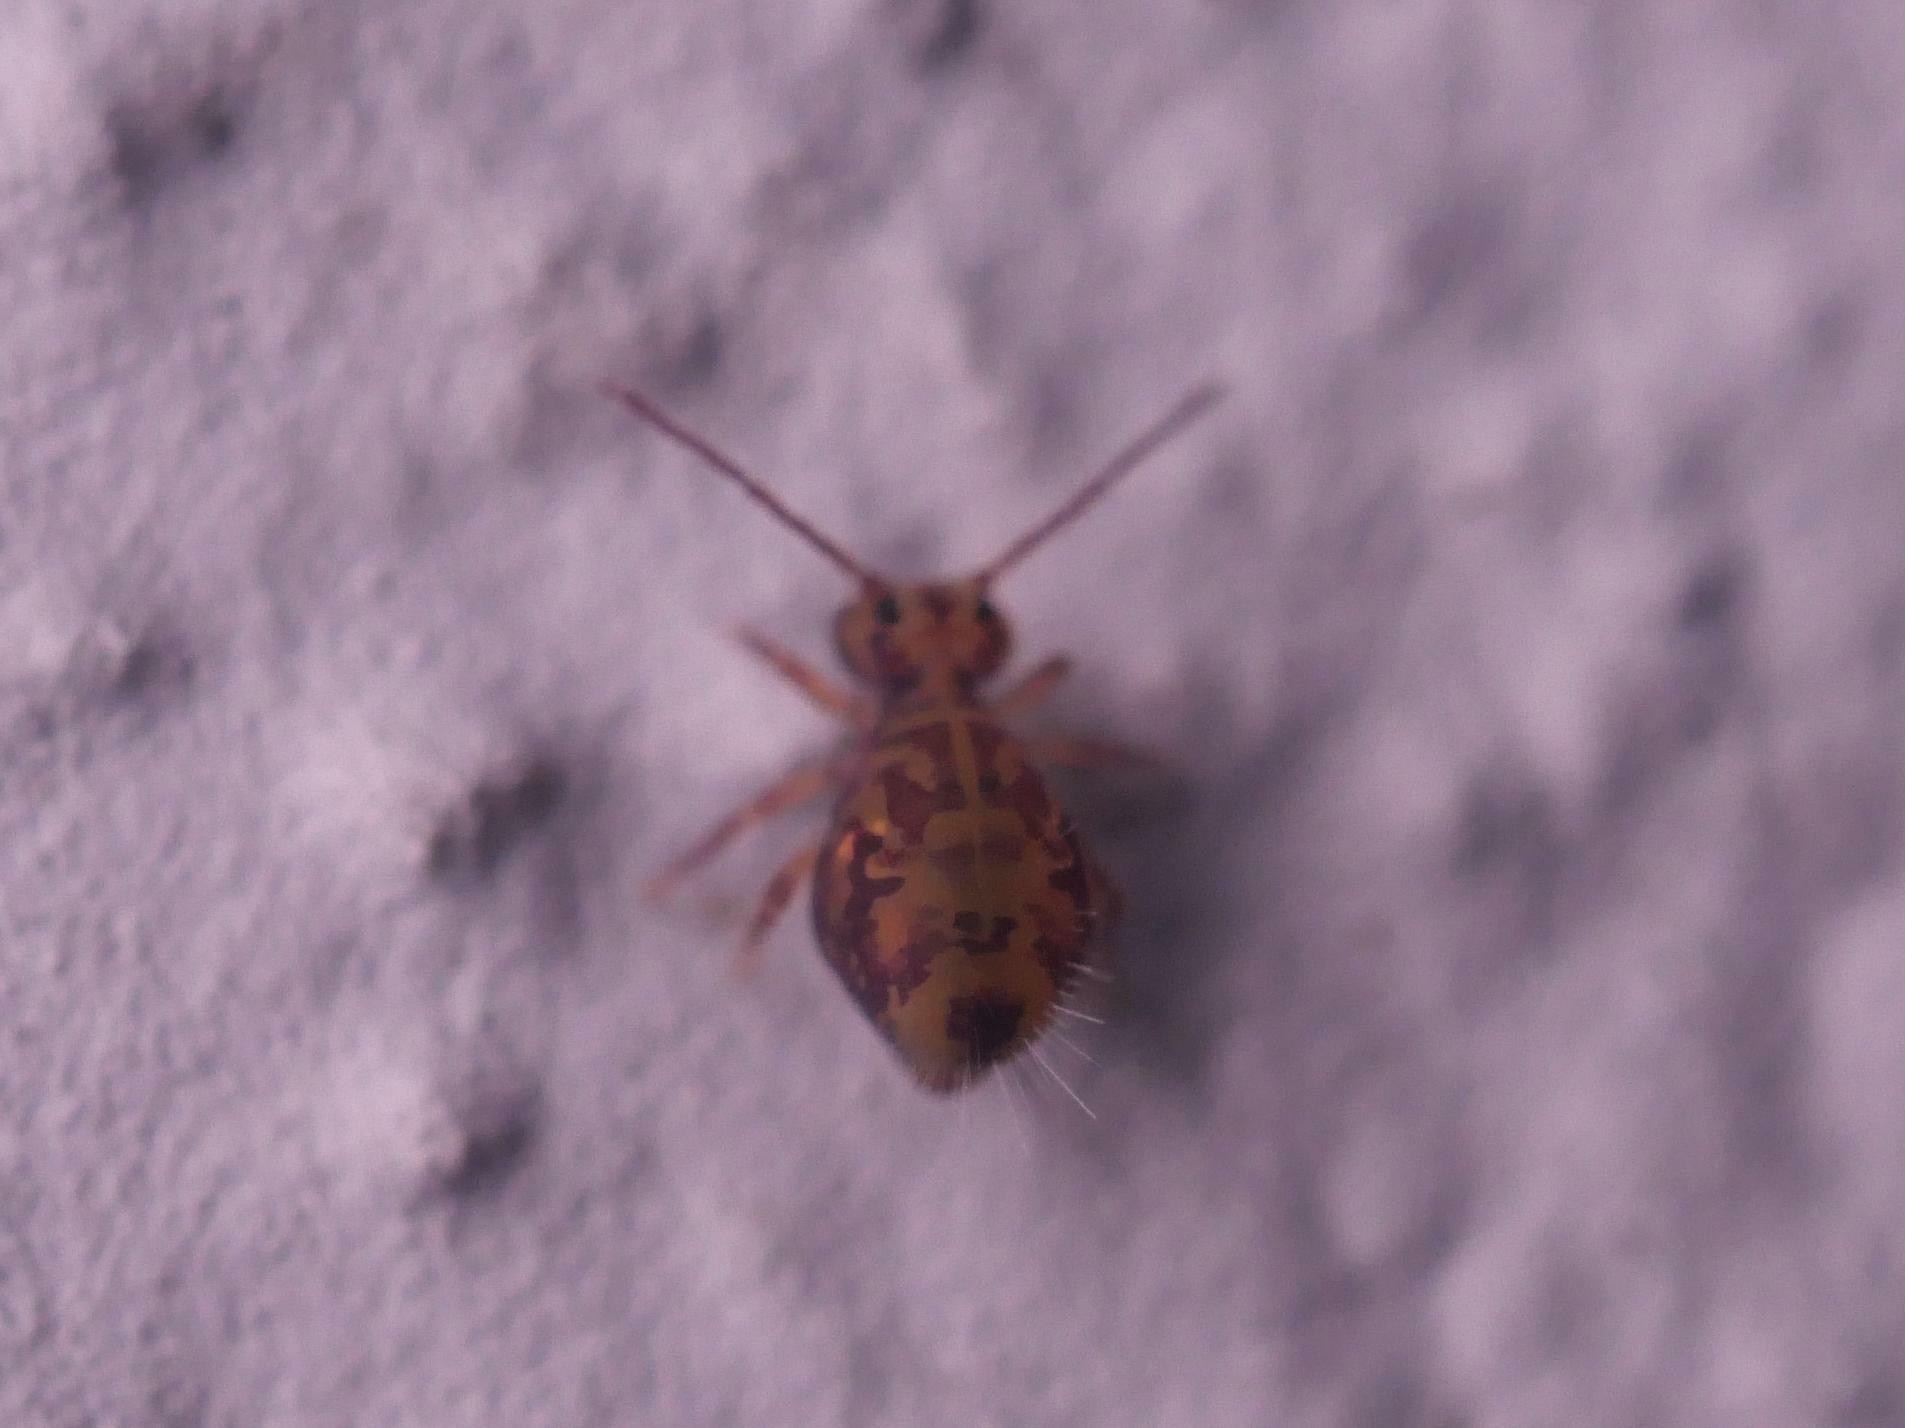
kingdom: Animalia
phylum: Arthropoda
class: Collembola
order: Symphypleona
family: Dicyrtomidae
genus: Dicyrtomina
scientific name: Dicyrtomina ornata
